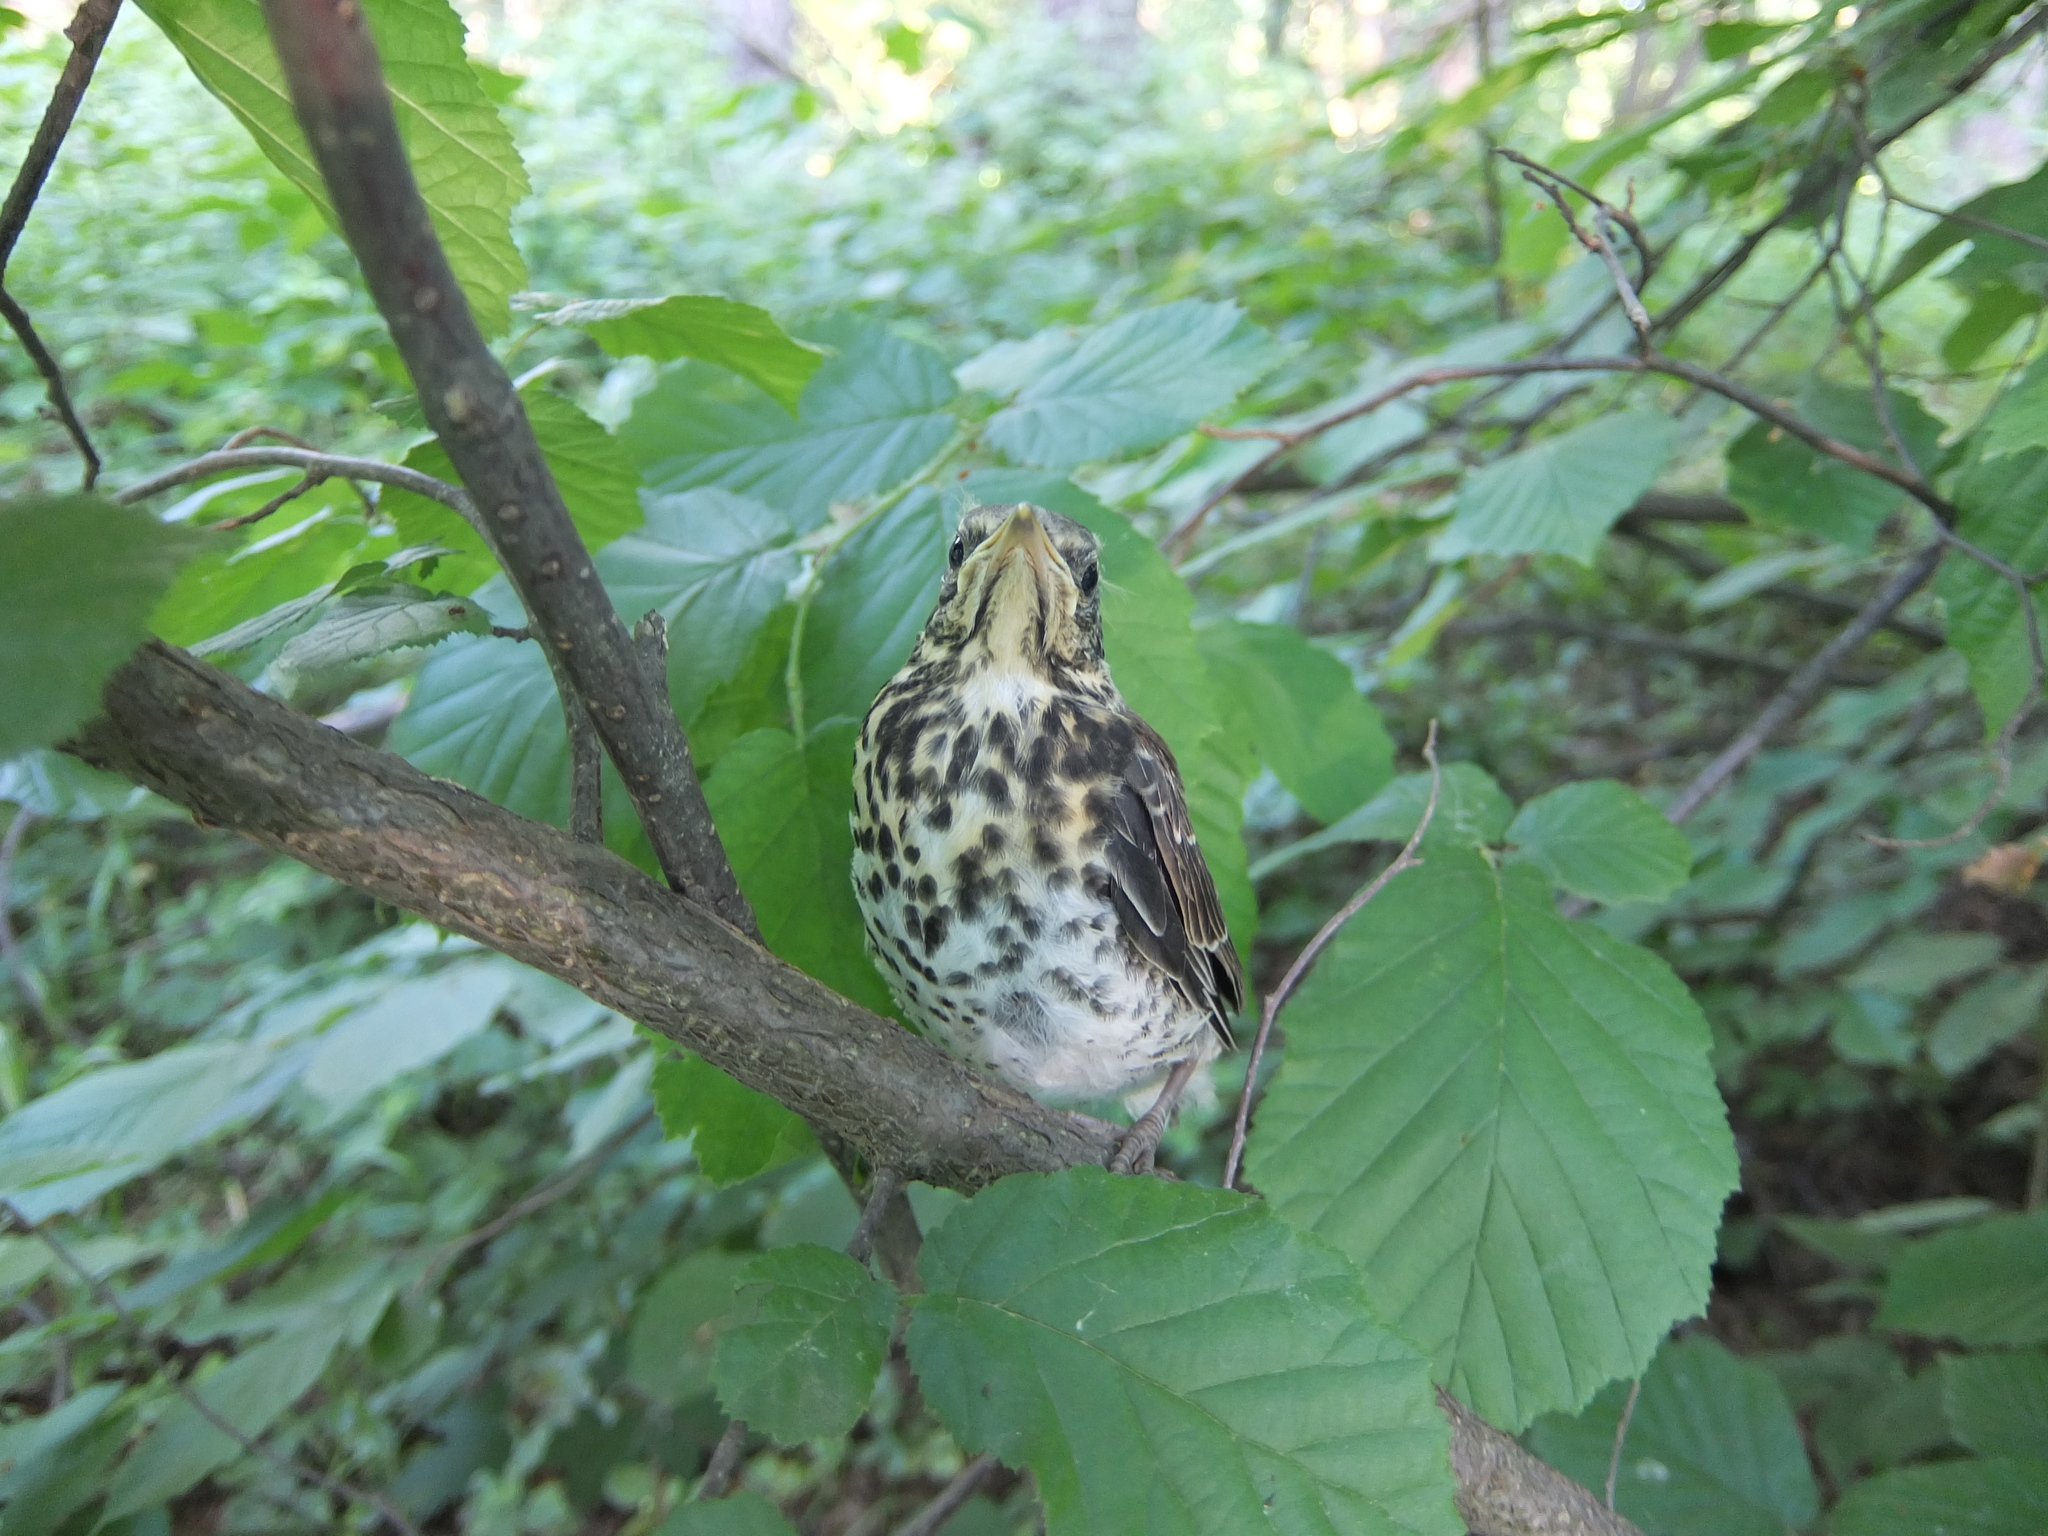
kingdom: Animalia
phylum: Chordata
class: Aves
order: Passeriformes
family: Turdidae
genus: Turdus
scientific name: Turdus pilaris
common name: Fieldfare
